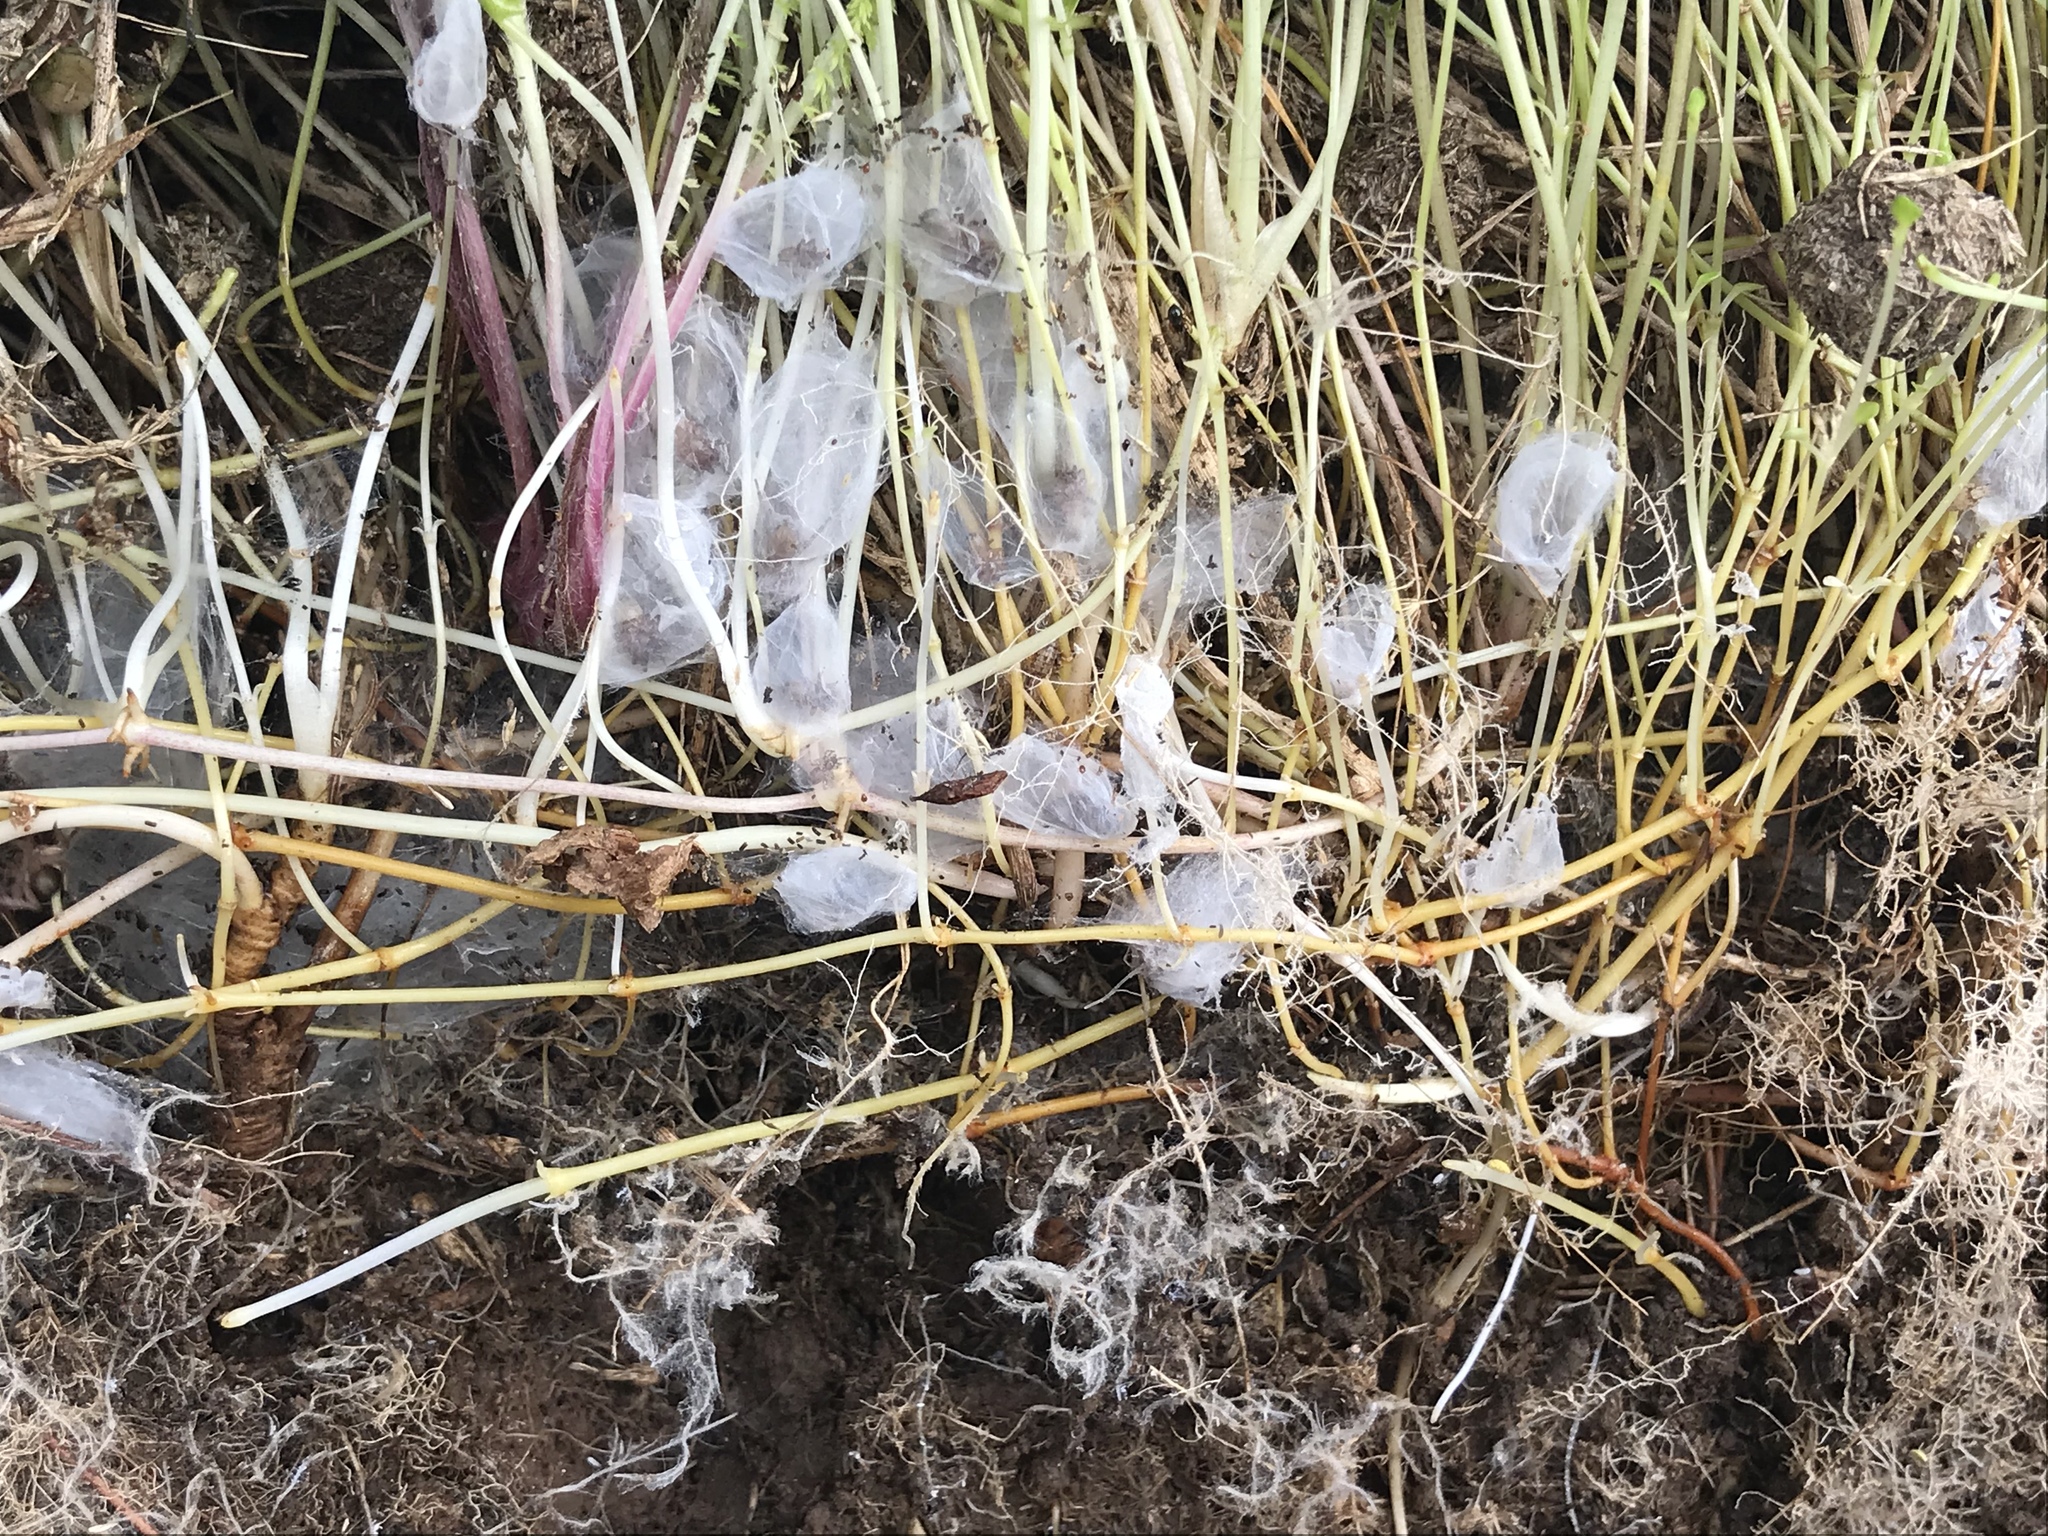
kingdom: Animalia
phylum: Arthropoda
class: Arachnida
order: Araneae
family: Porrhothelidae
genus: Porrhothele
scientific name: Porrhothele antipodiana
